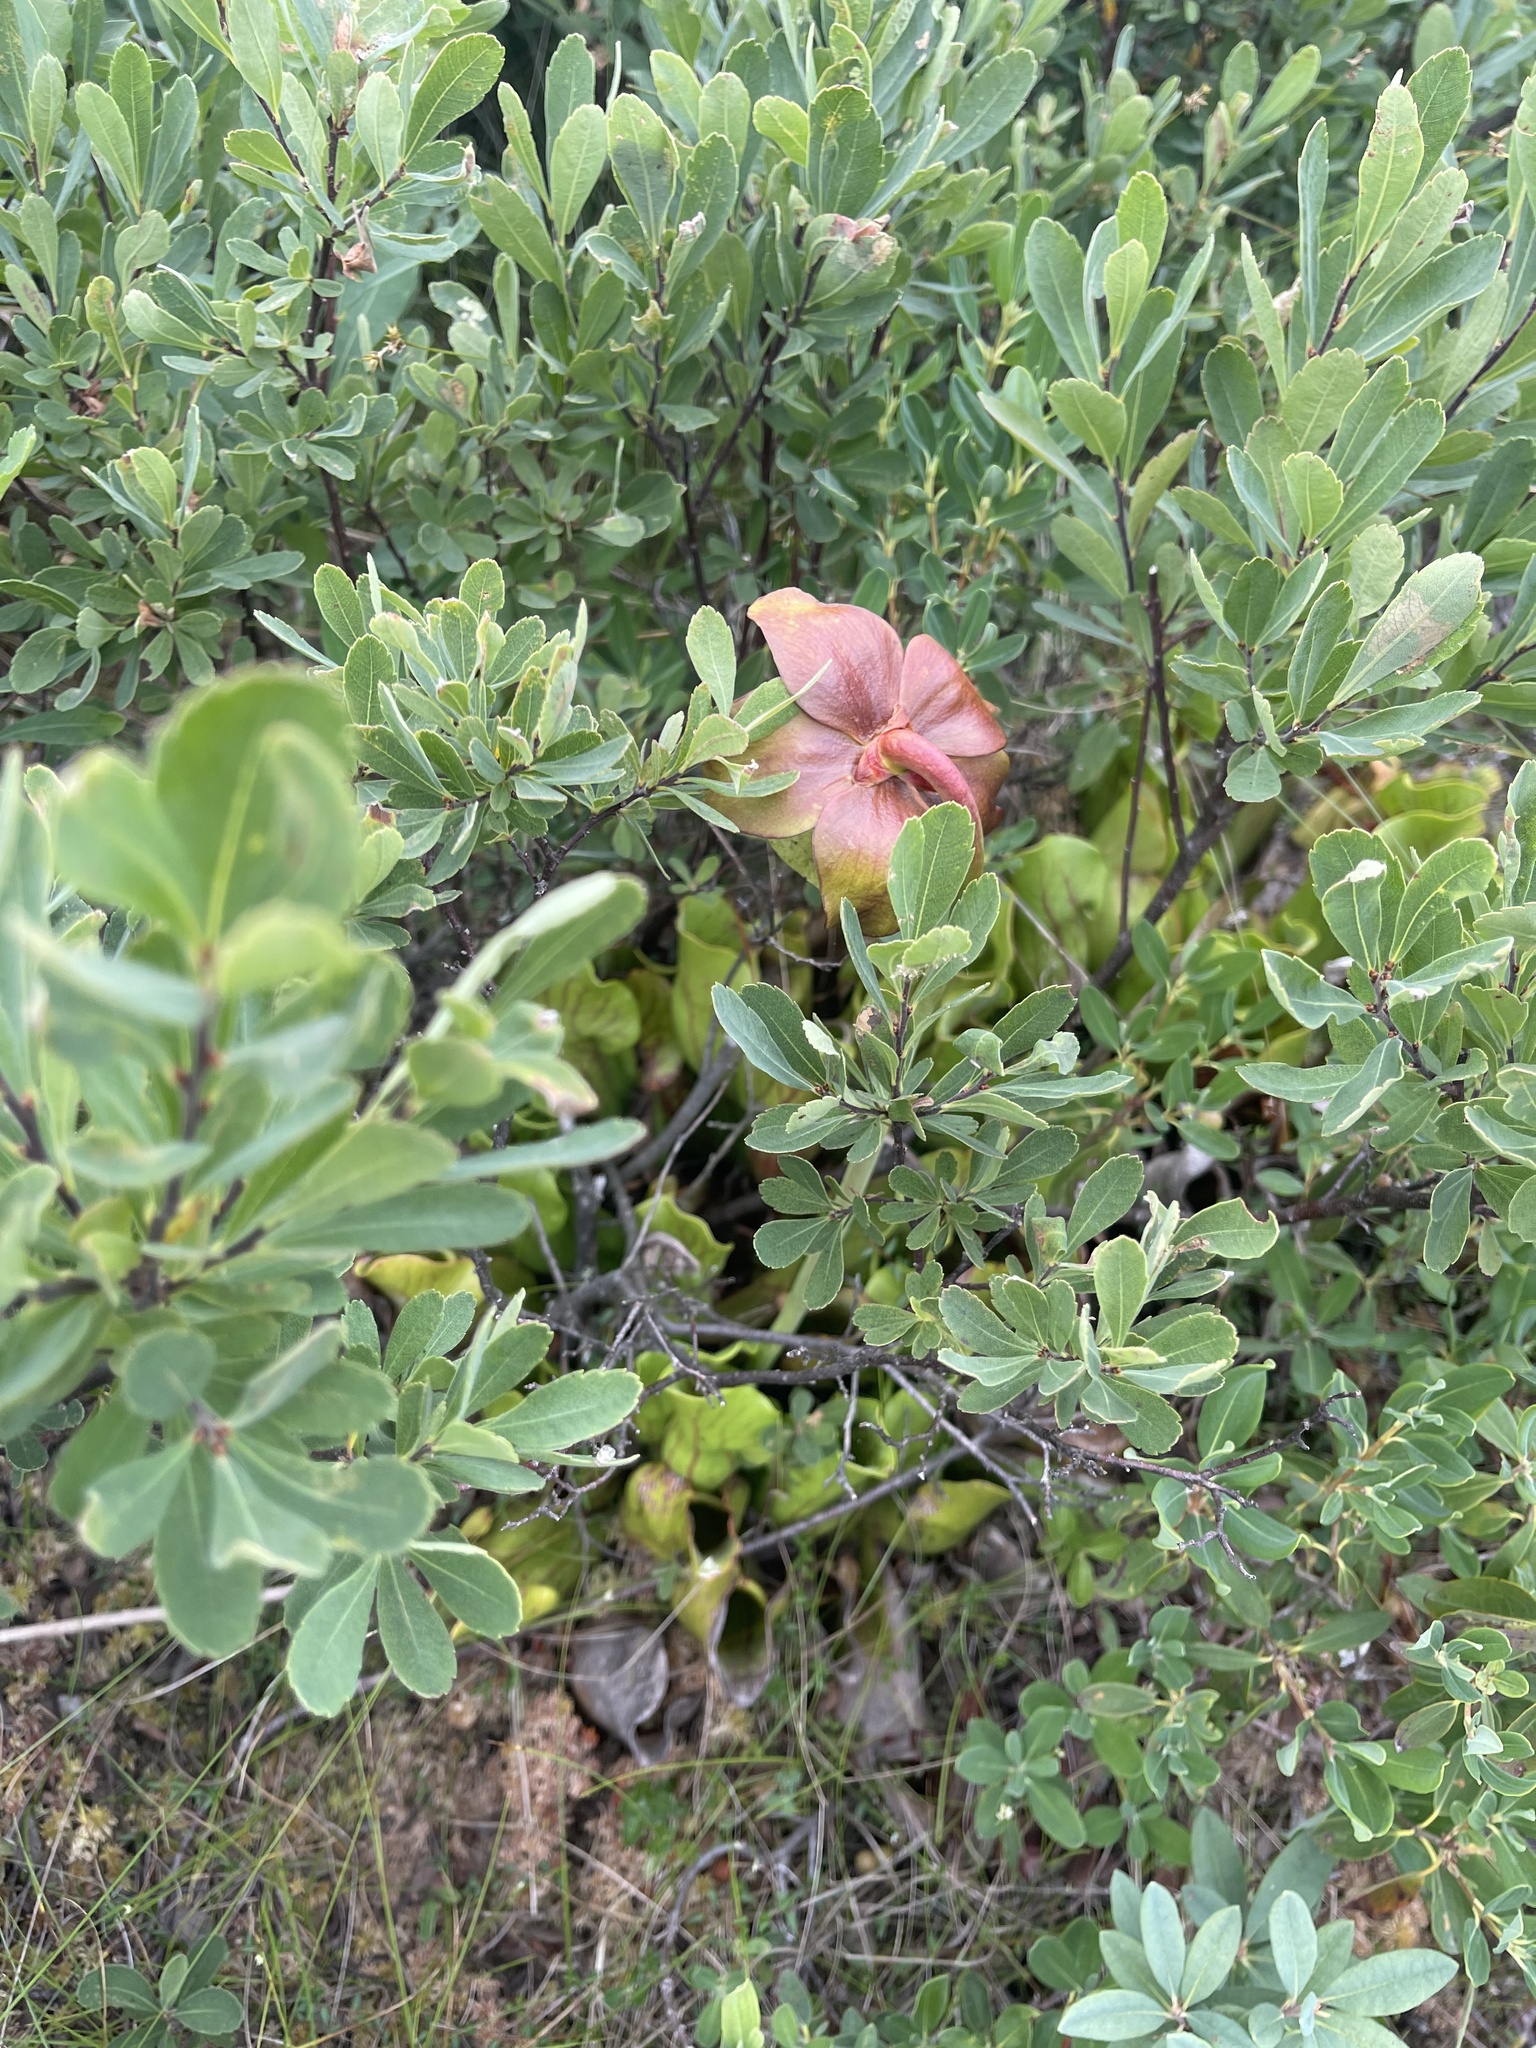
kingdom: Plantae
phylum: Tracheophyta
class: Magnoliopsida
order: Ericales
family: Sarraceniaceae
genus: Sarracenia
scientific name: Sarracenia purpurea
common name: Pitcherplant
